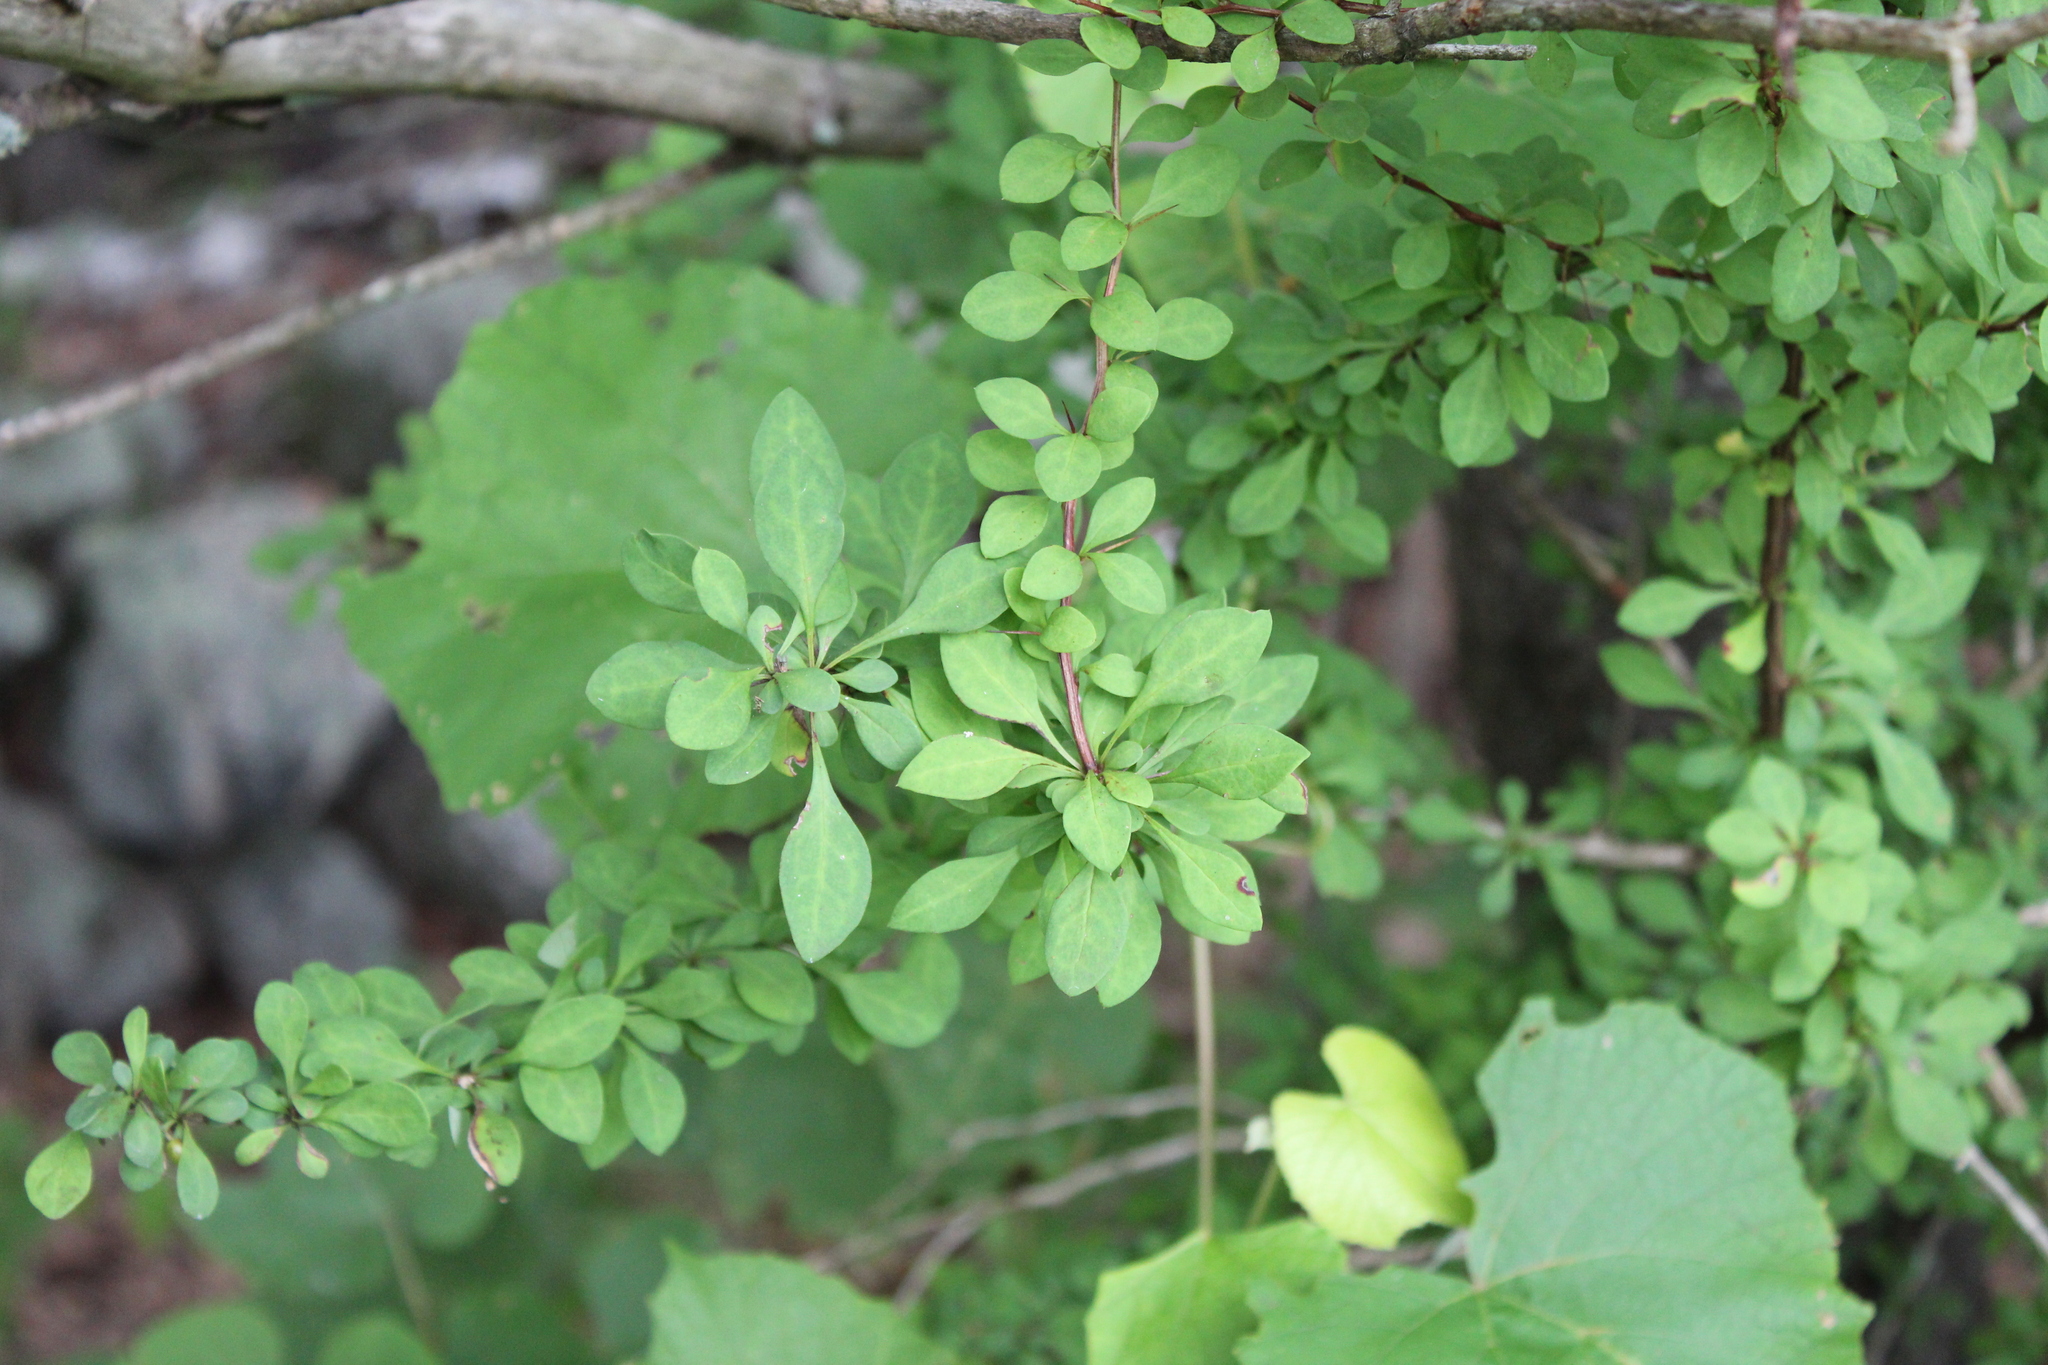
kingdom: Plantae
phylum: Tracheophyta
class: Magnoliopsida
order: Ranunculales
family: Berberidaceae
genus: Berberis
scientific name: Berberis thunbergii
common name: Japanese barberry
